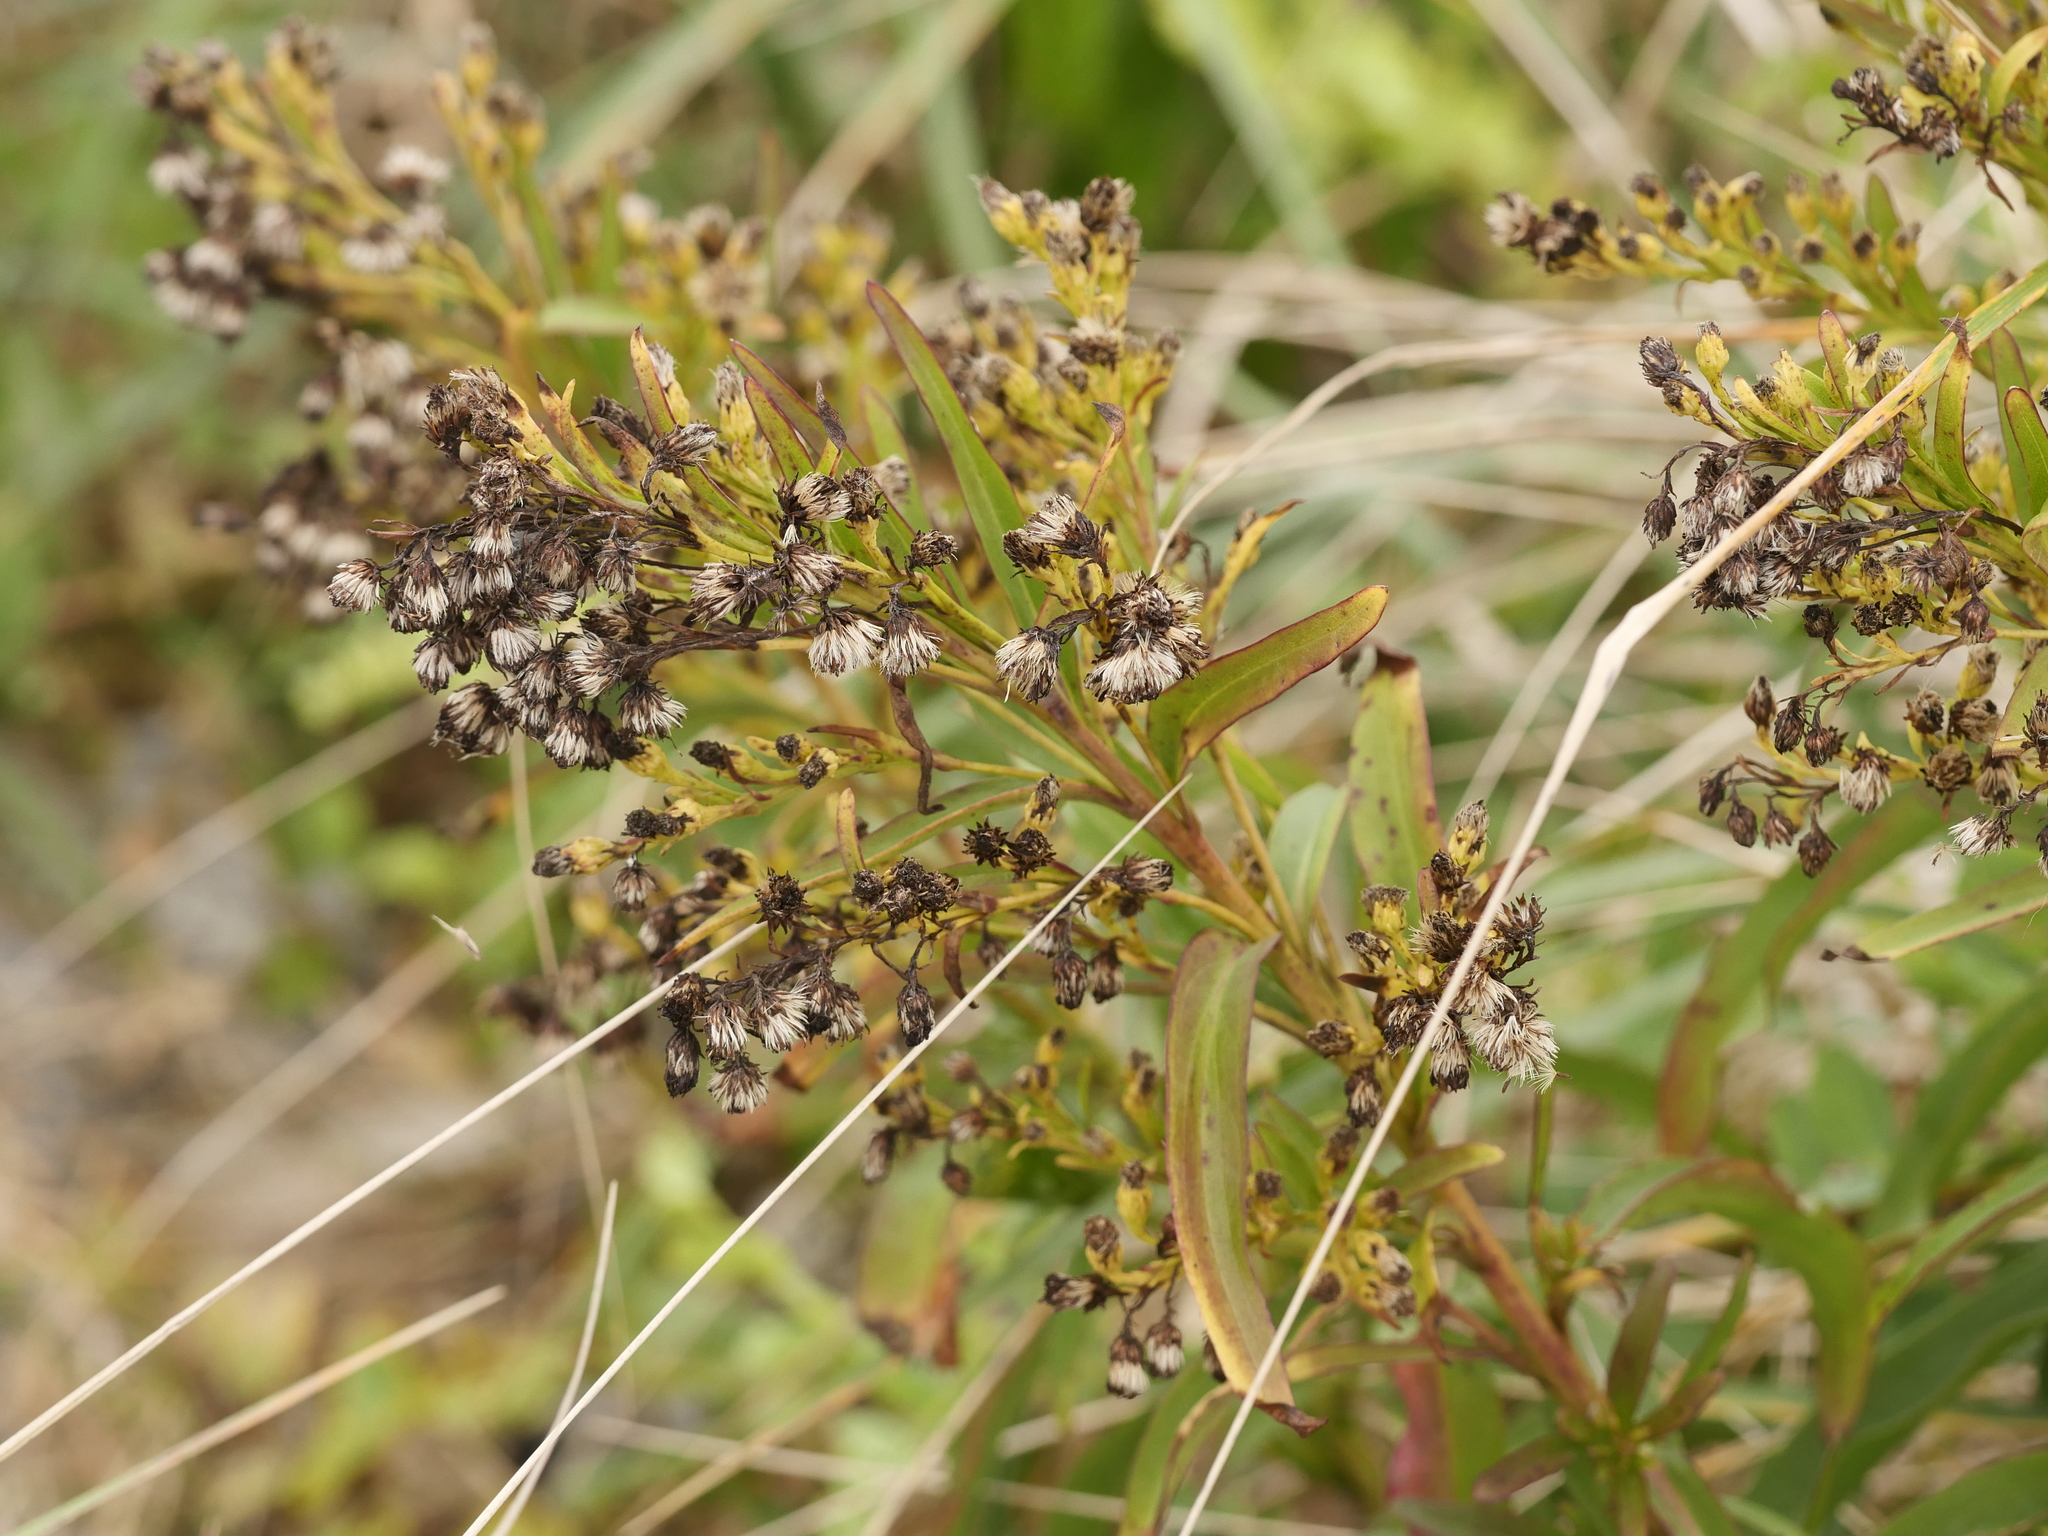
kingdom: Plantae
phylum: Tracheophyta
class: Magnoliopsida
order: Asterales
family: Asteraceae
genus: Solidago
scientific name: Solidago sempervirens
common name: Salt-marsh goldenrod
